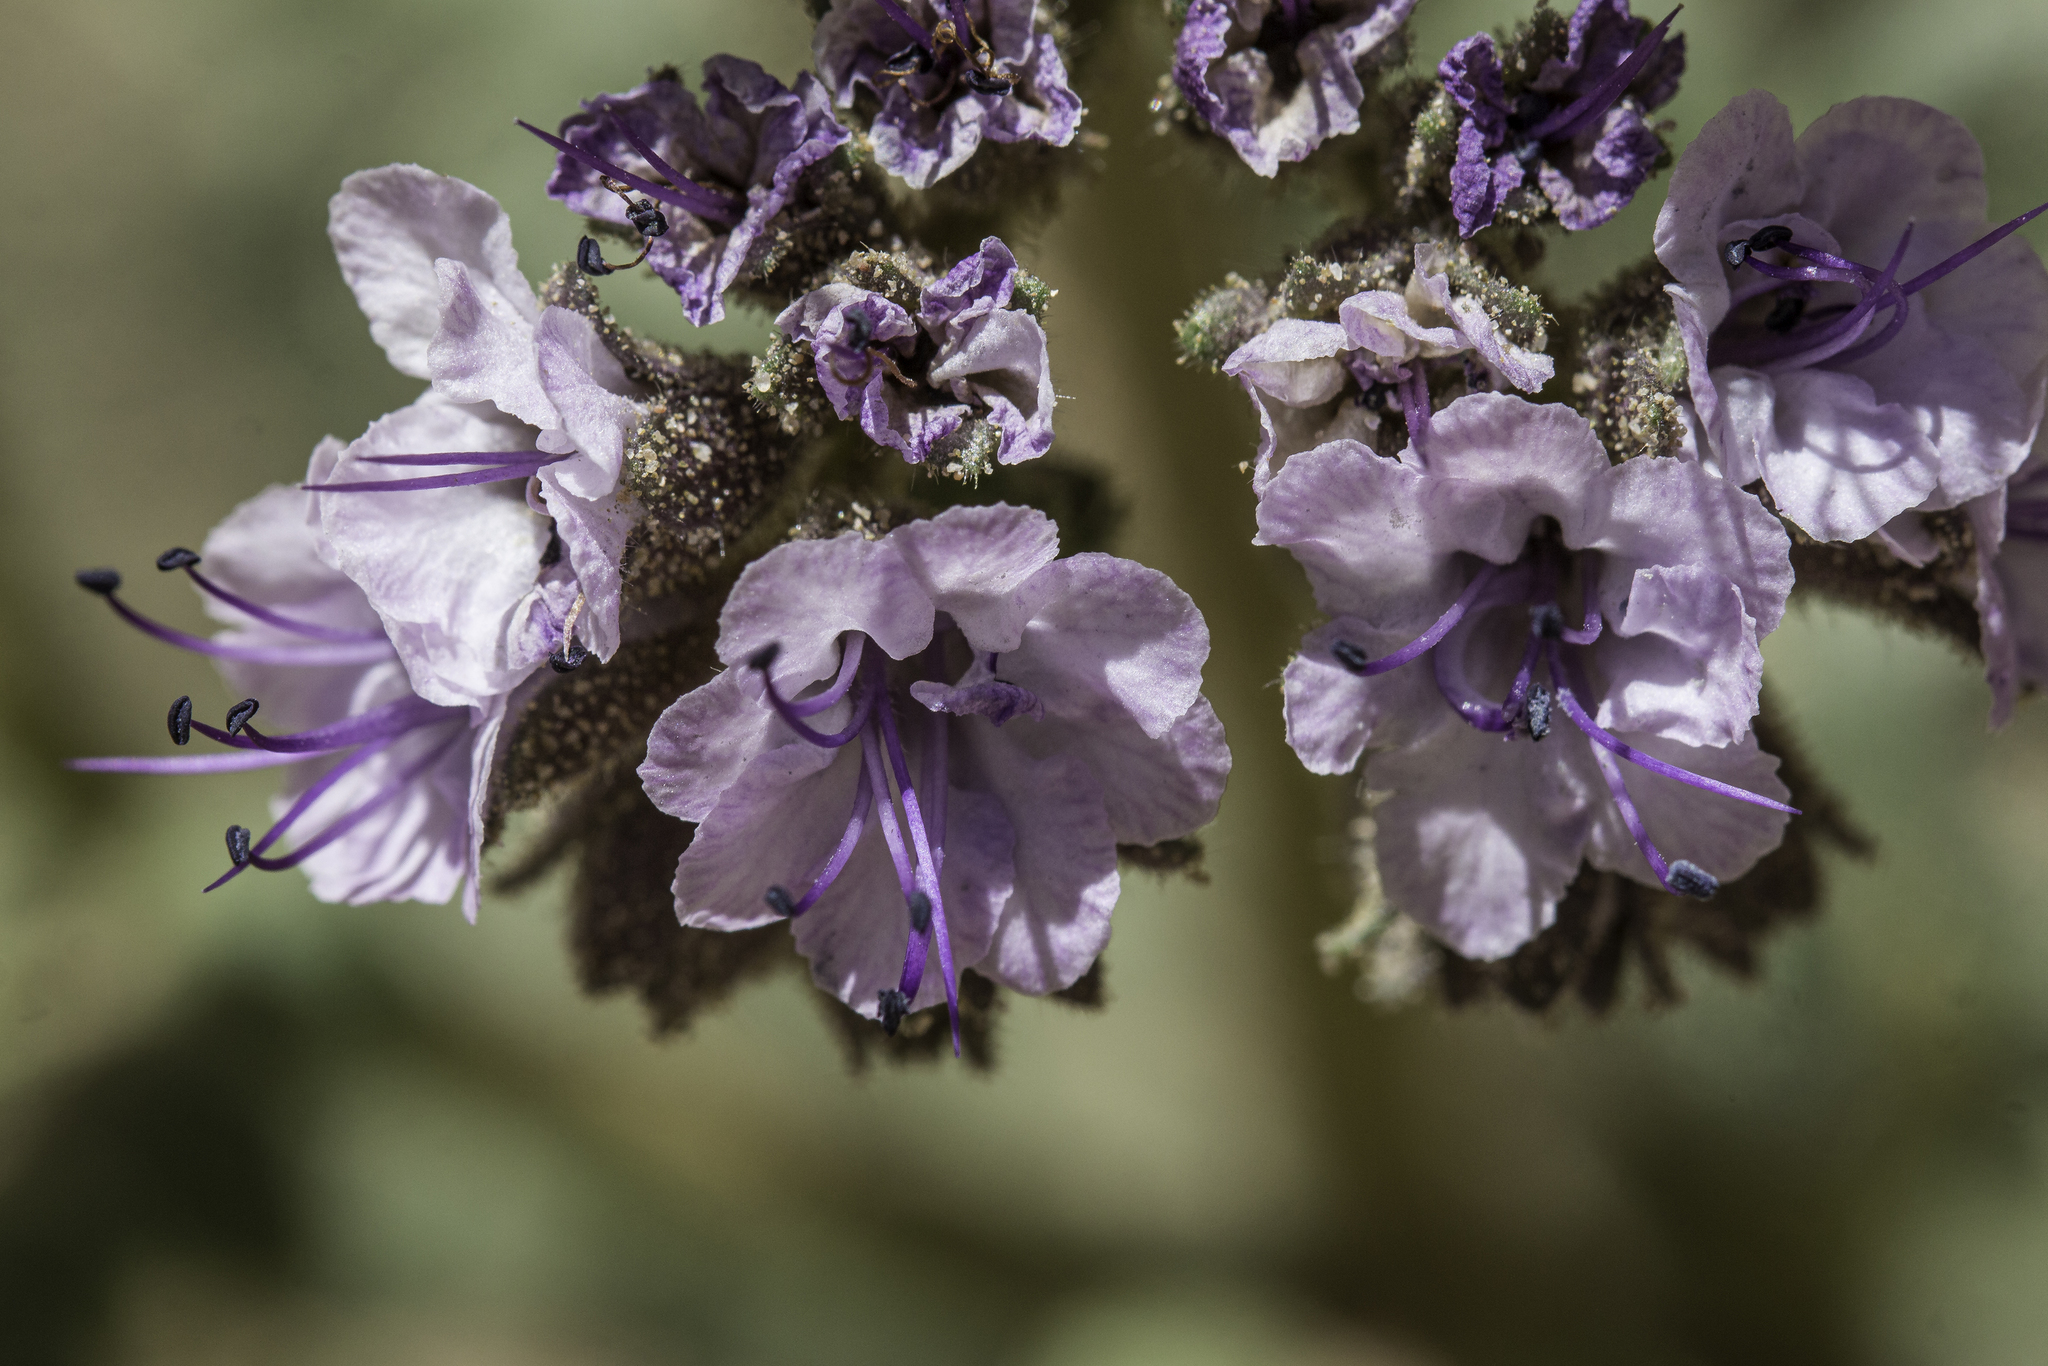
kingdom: Plantae
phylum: Tracheophyta
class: Magnoliopsida
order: Boraginales
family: Hydrophyllaceae
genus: Phacelia
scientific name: Phacelia integrifolia
